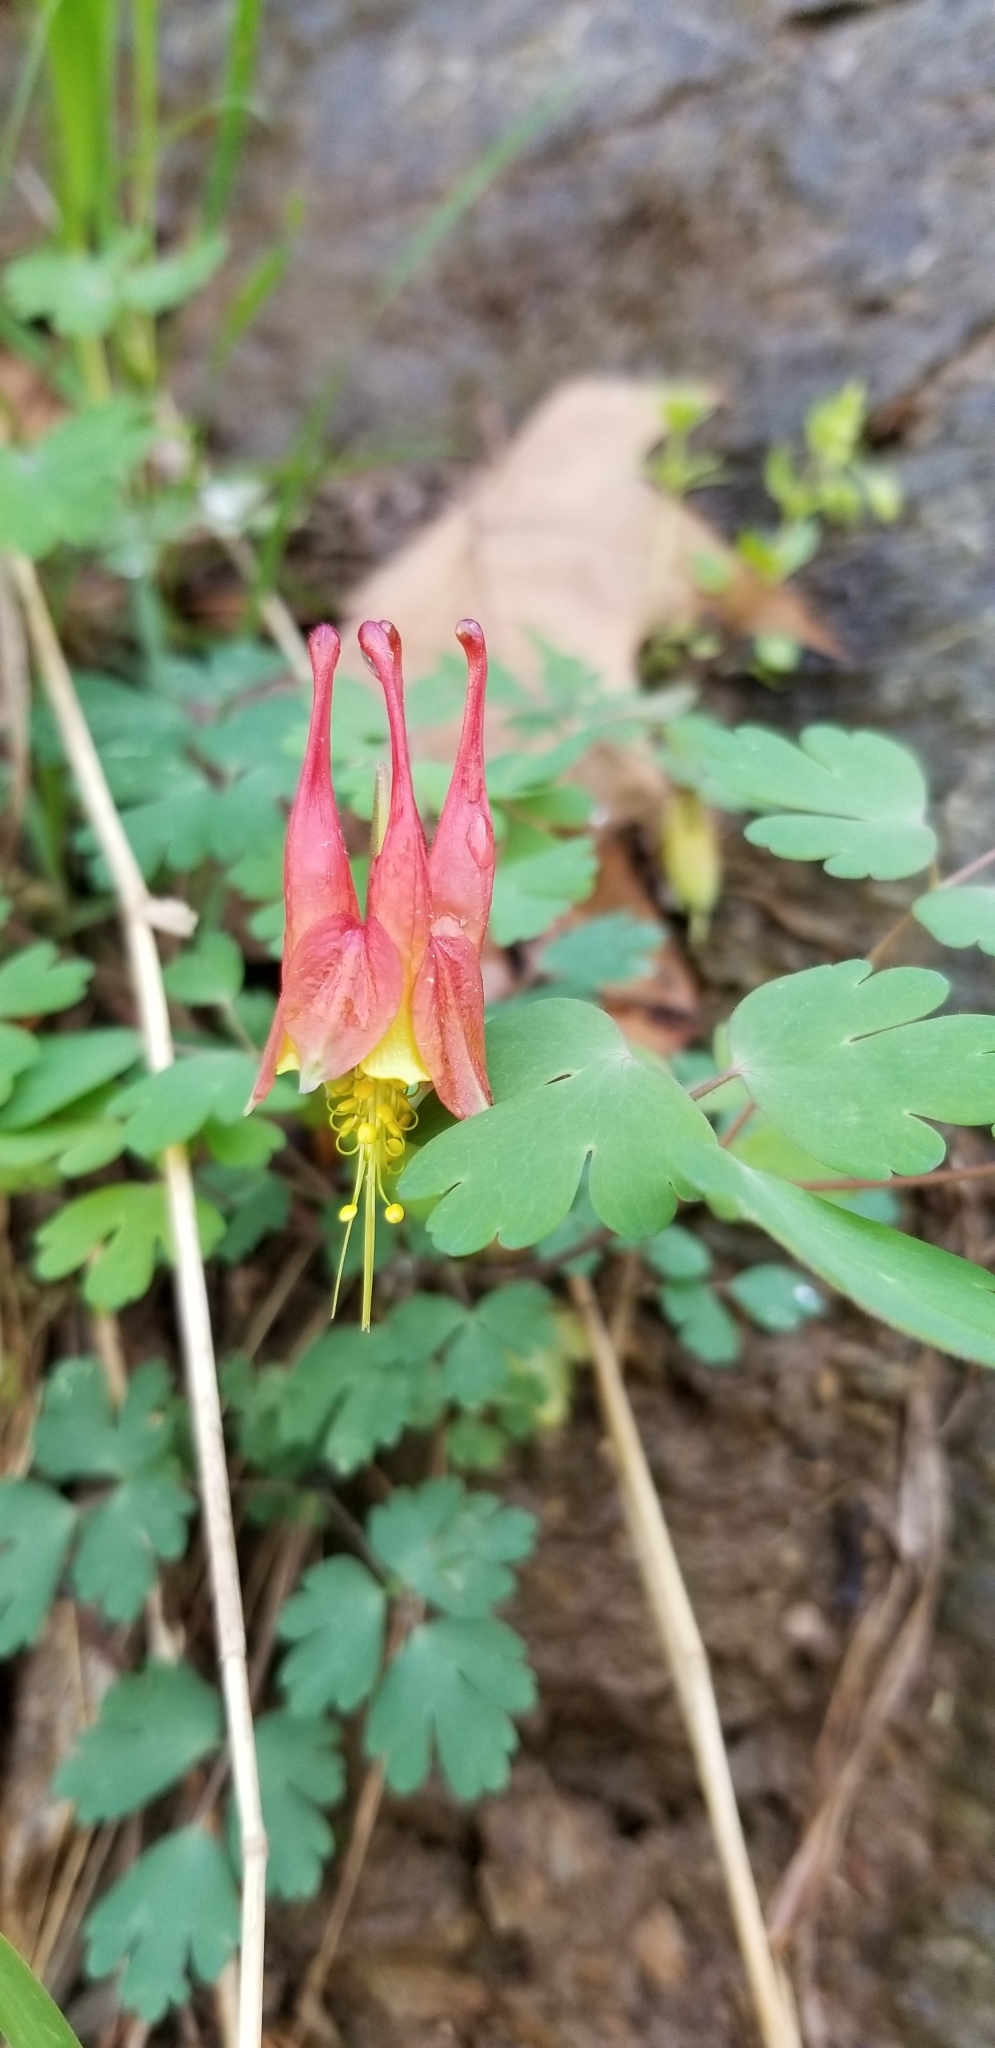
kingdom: Plantae
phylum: Tracheophyta
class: Magnoliopsida
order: Ranunculales
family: Ranunculaceae
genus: Aquilegia
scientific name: Aquilegia canadensis
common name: American columbine
